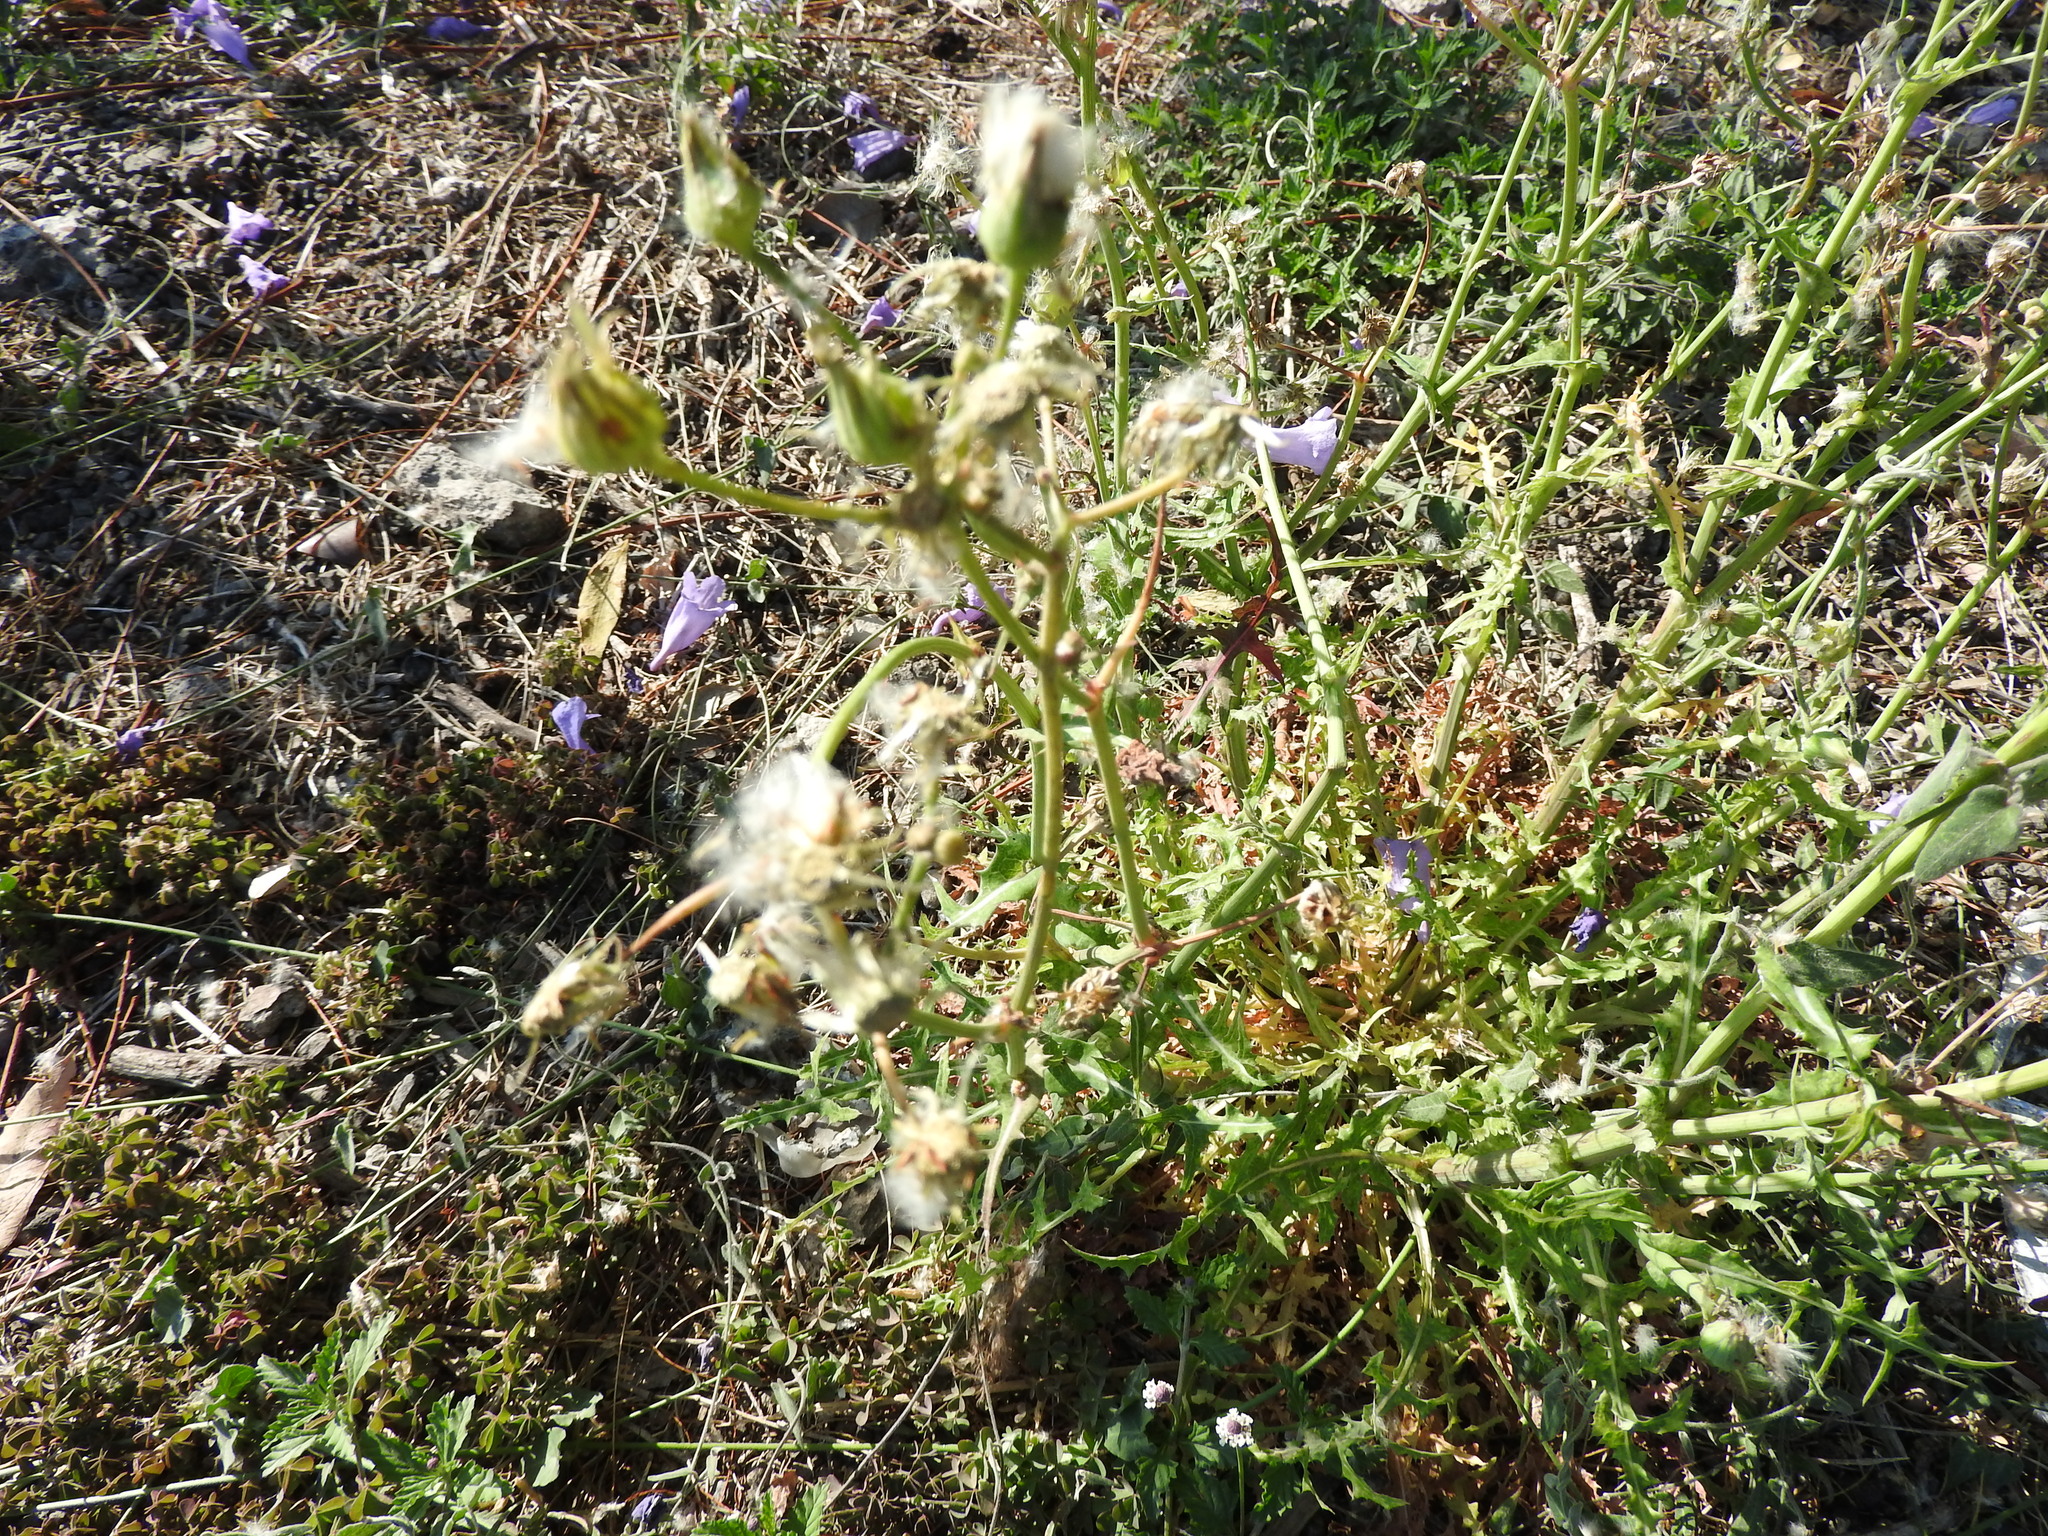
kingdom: Plantae
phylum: Tracheophyta
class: Magnoliopsida
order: Asterales
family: Asteraceae
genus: Sonchus
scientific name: Sonchus oleraceus
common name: Common sowthistle
